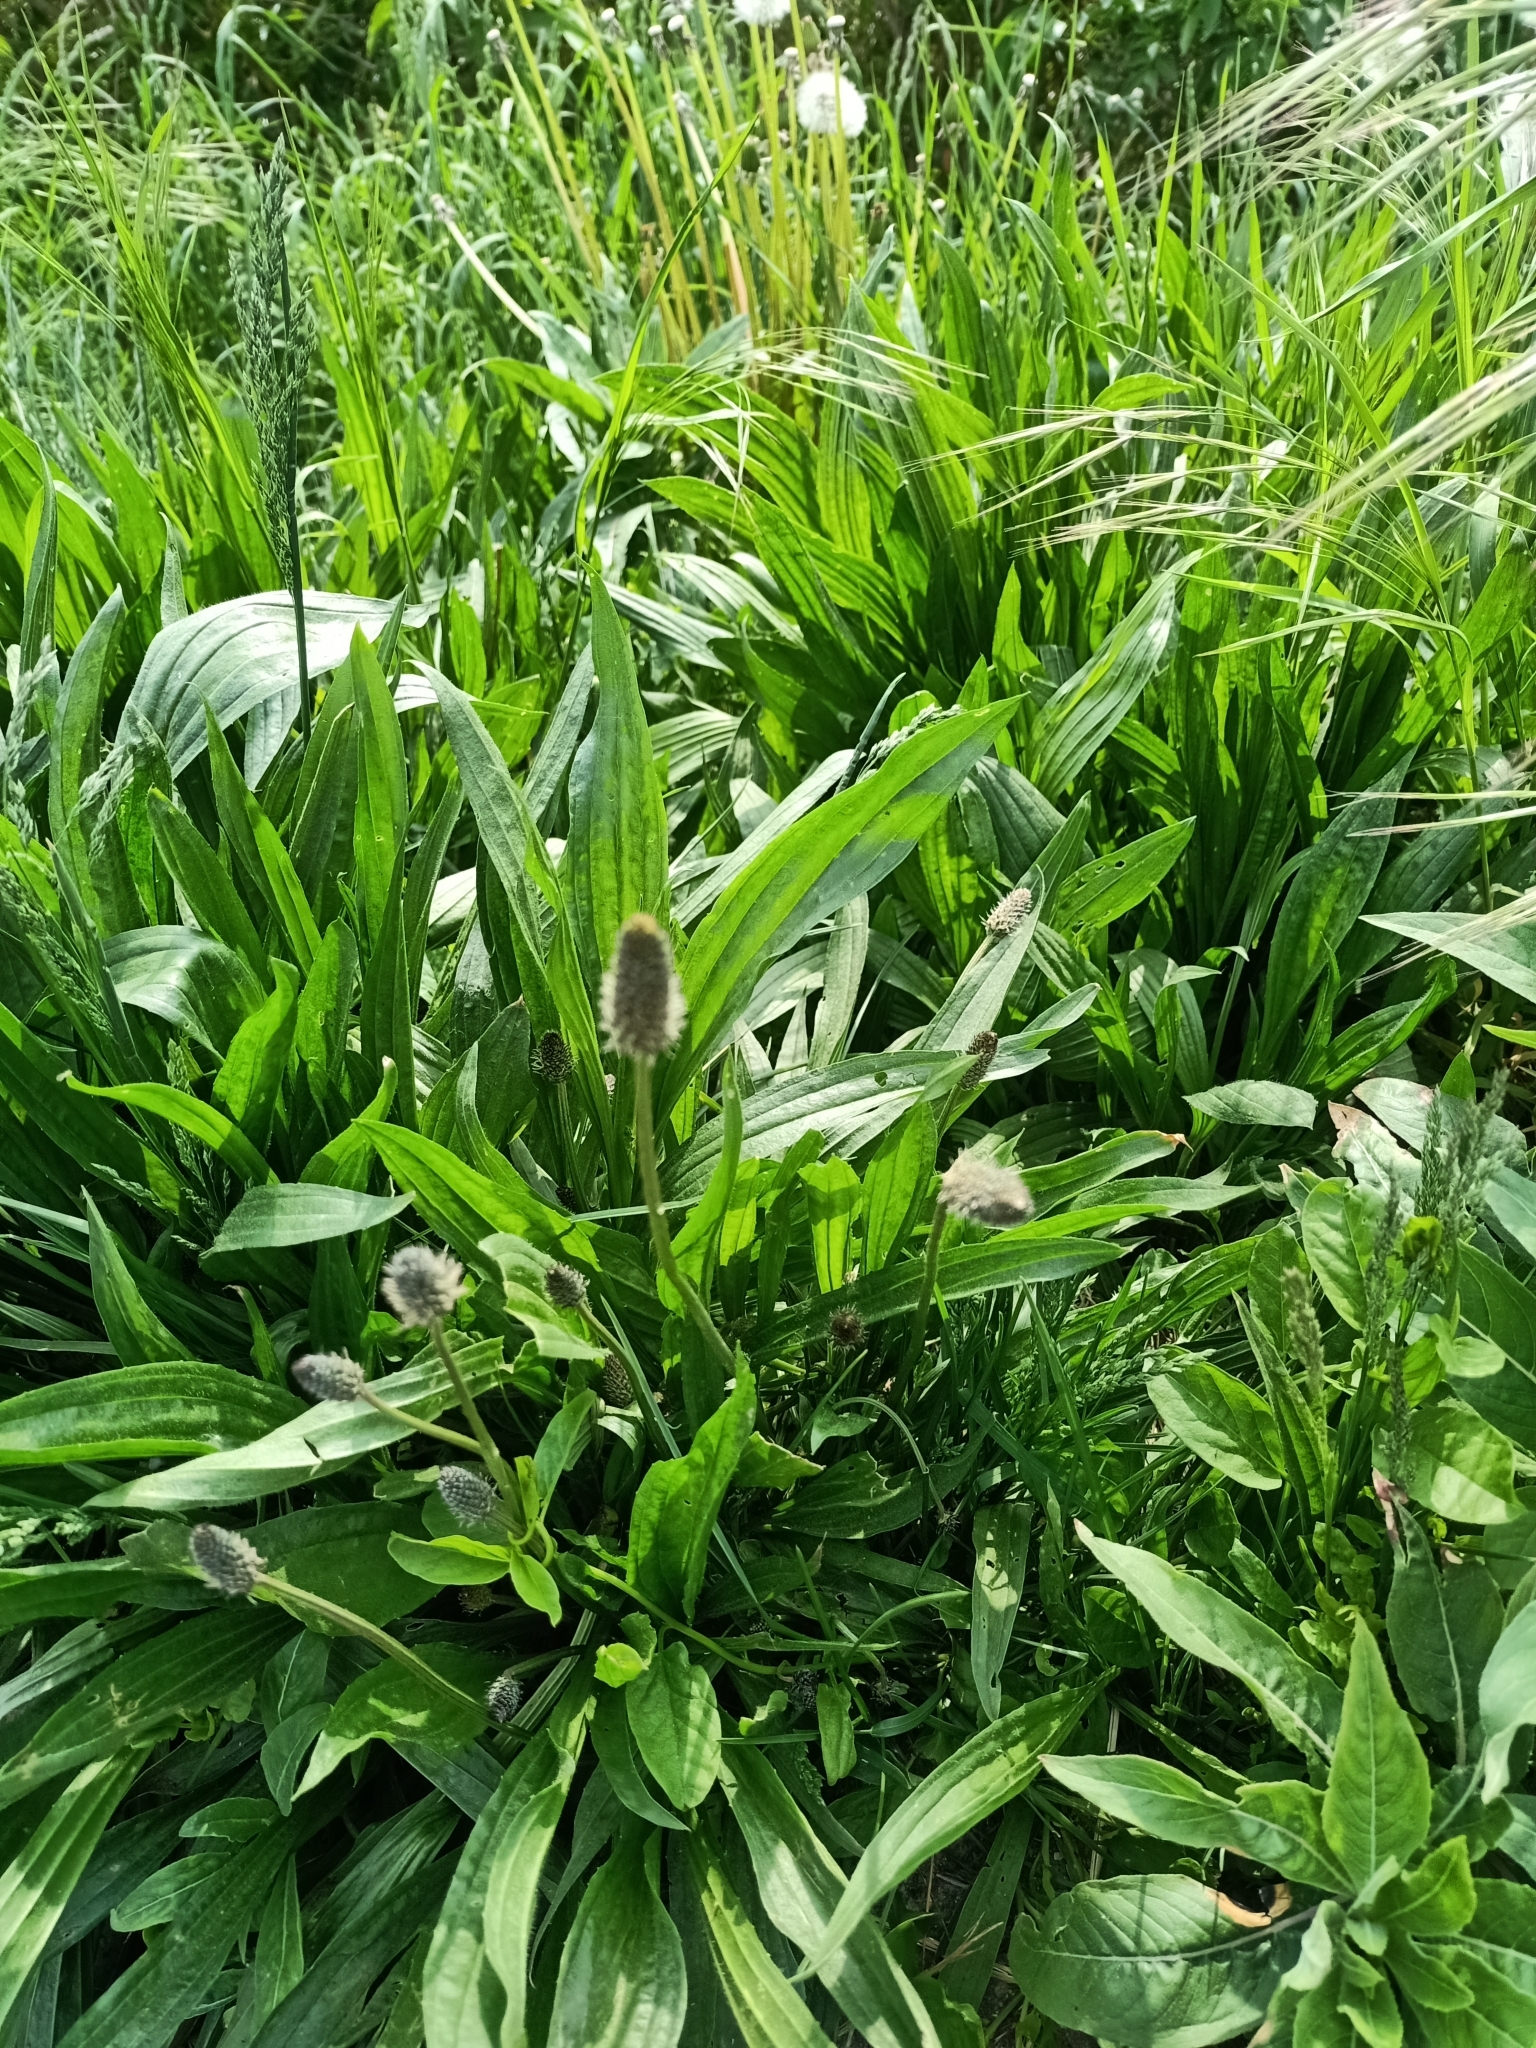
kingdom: Plantae
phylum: Tracheophyta
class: Magnoliopsida
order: Lamiales
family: Plantaginaceae
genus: Plantago
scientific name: Plantago lanceolata
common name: Ribwort plantain
